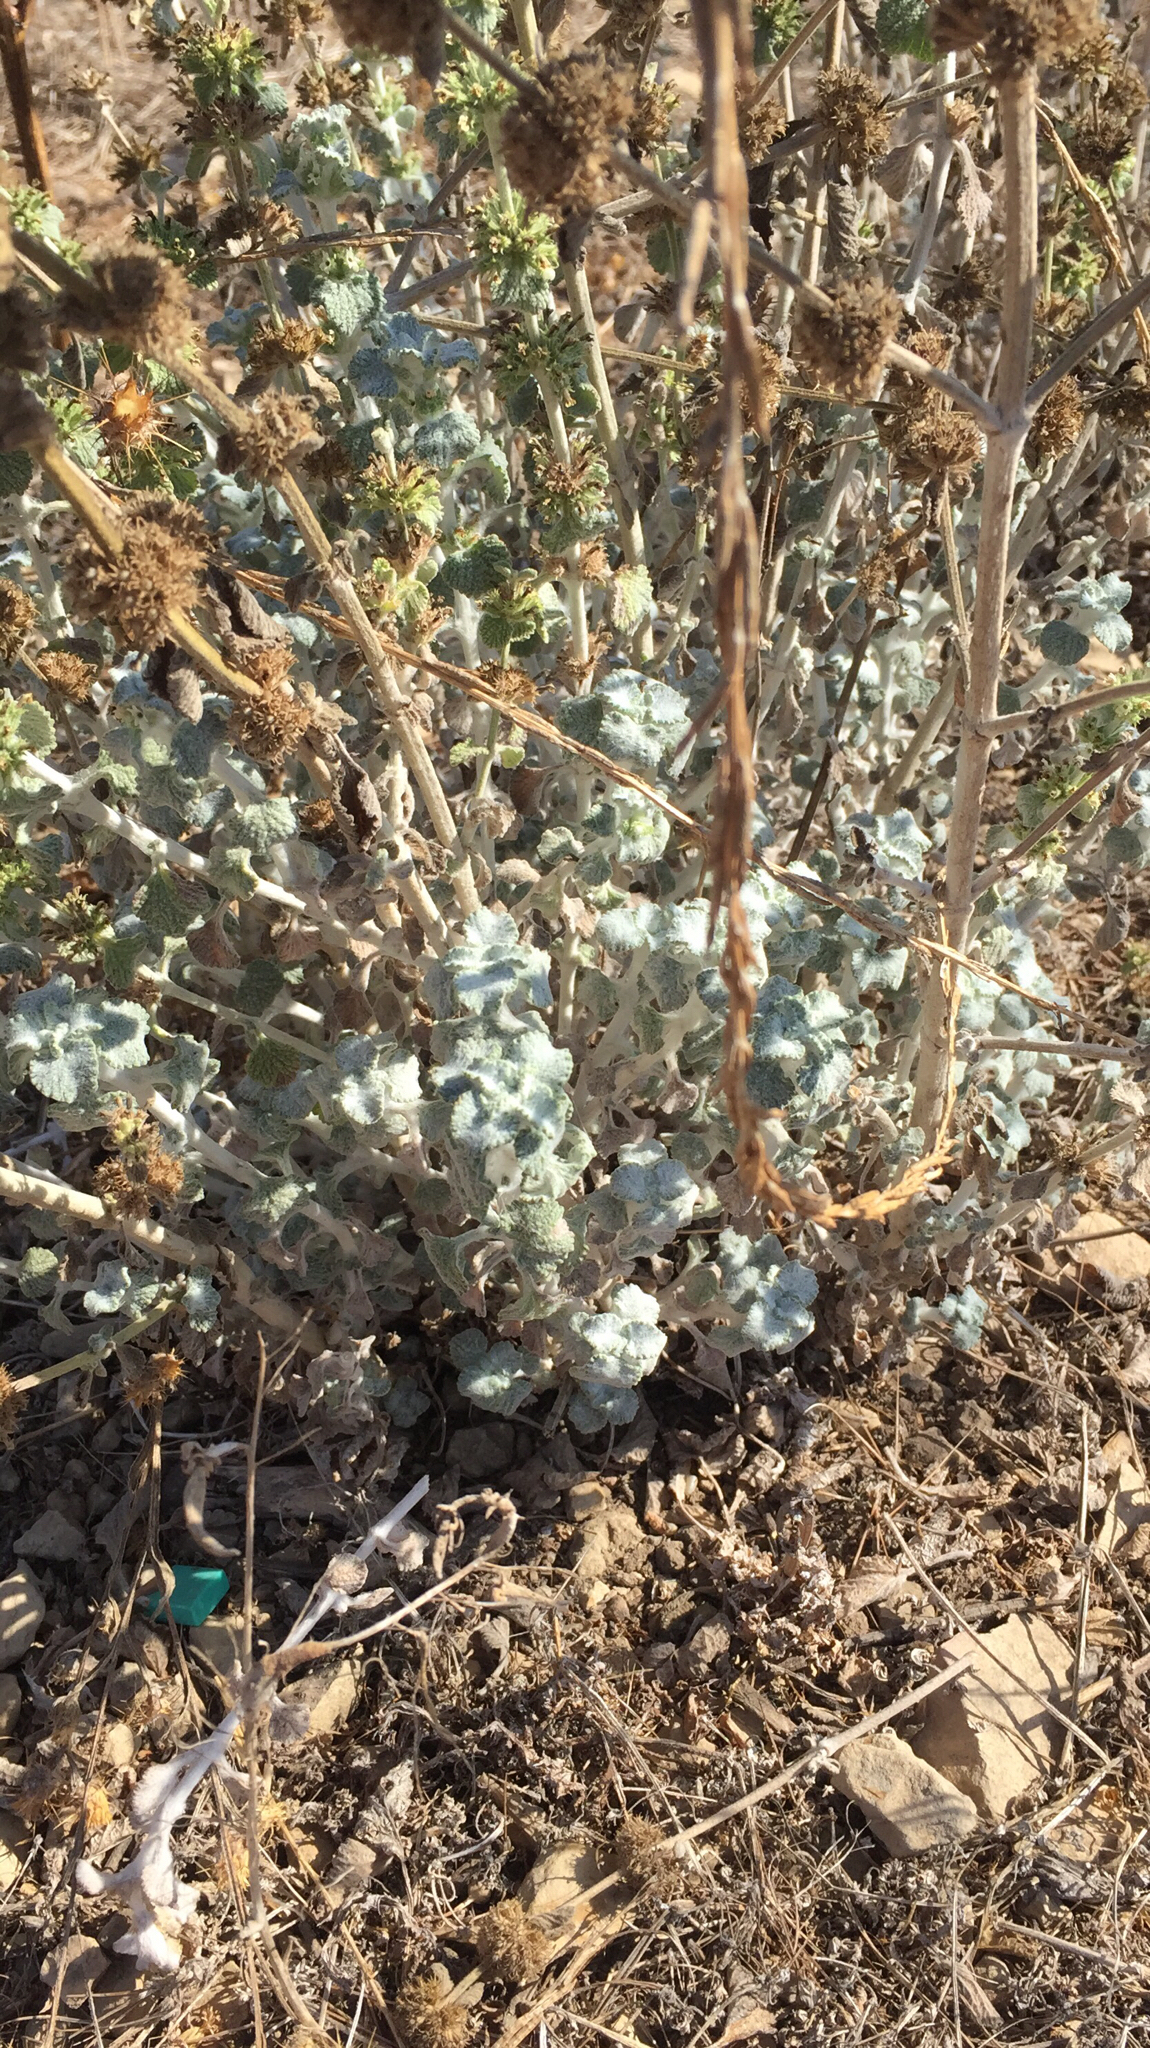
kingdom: Plantae
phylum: Tracheophyta
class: Magnoliopsida
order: Lamiales
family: Lamiaceae
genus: Marrubium
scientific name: Marrubium vulgare
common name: Horehound
